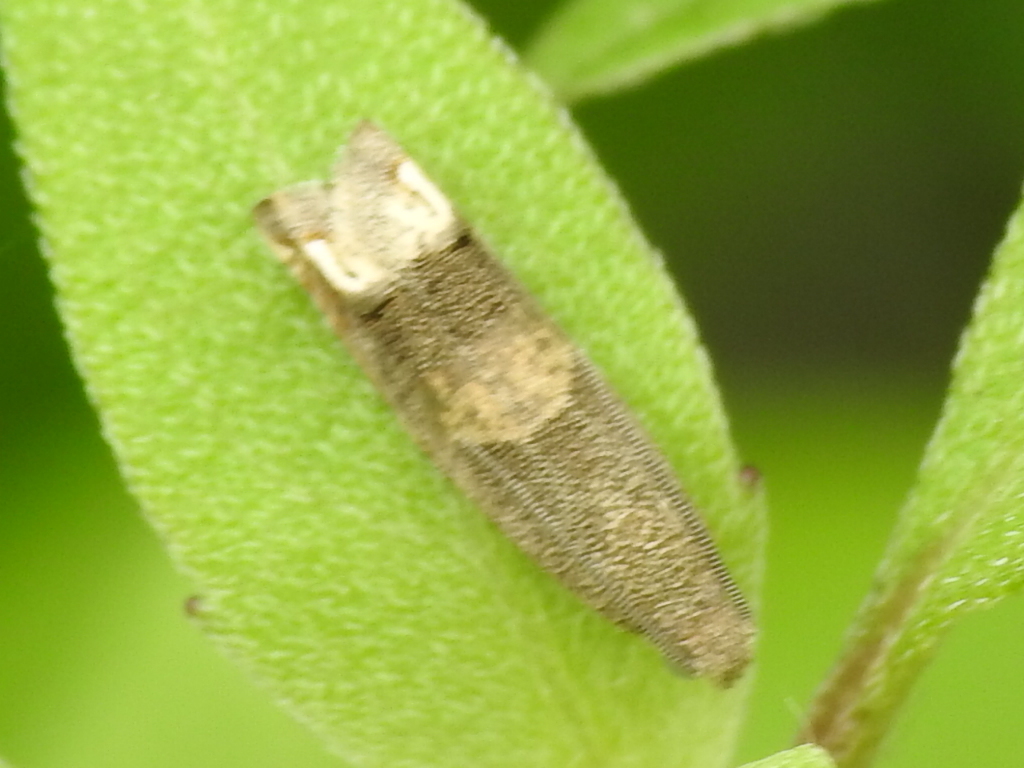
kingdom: Animalia
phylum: Arthropoda
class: Insecta
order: Lepidoptera
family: Tortricidae
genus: Epiblema
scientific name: Epiblema strenuana
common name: Ragweed borer moth
